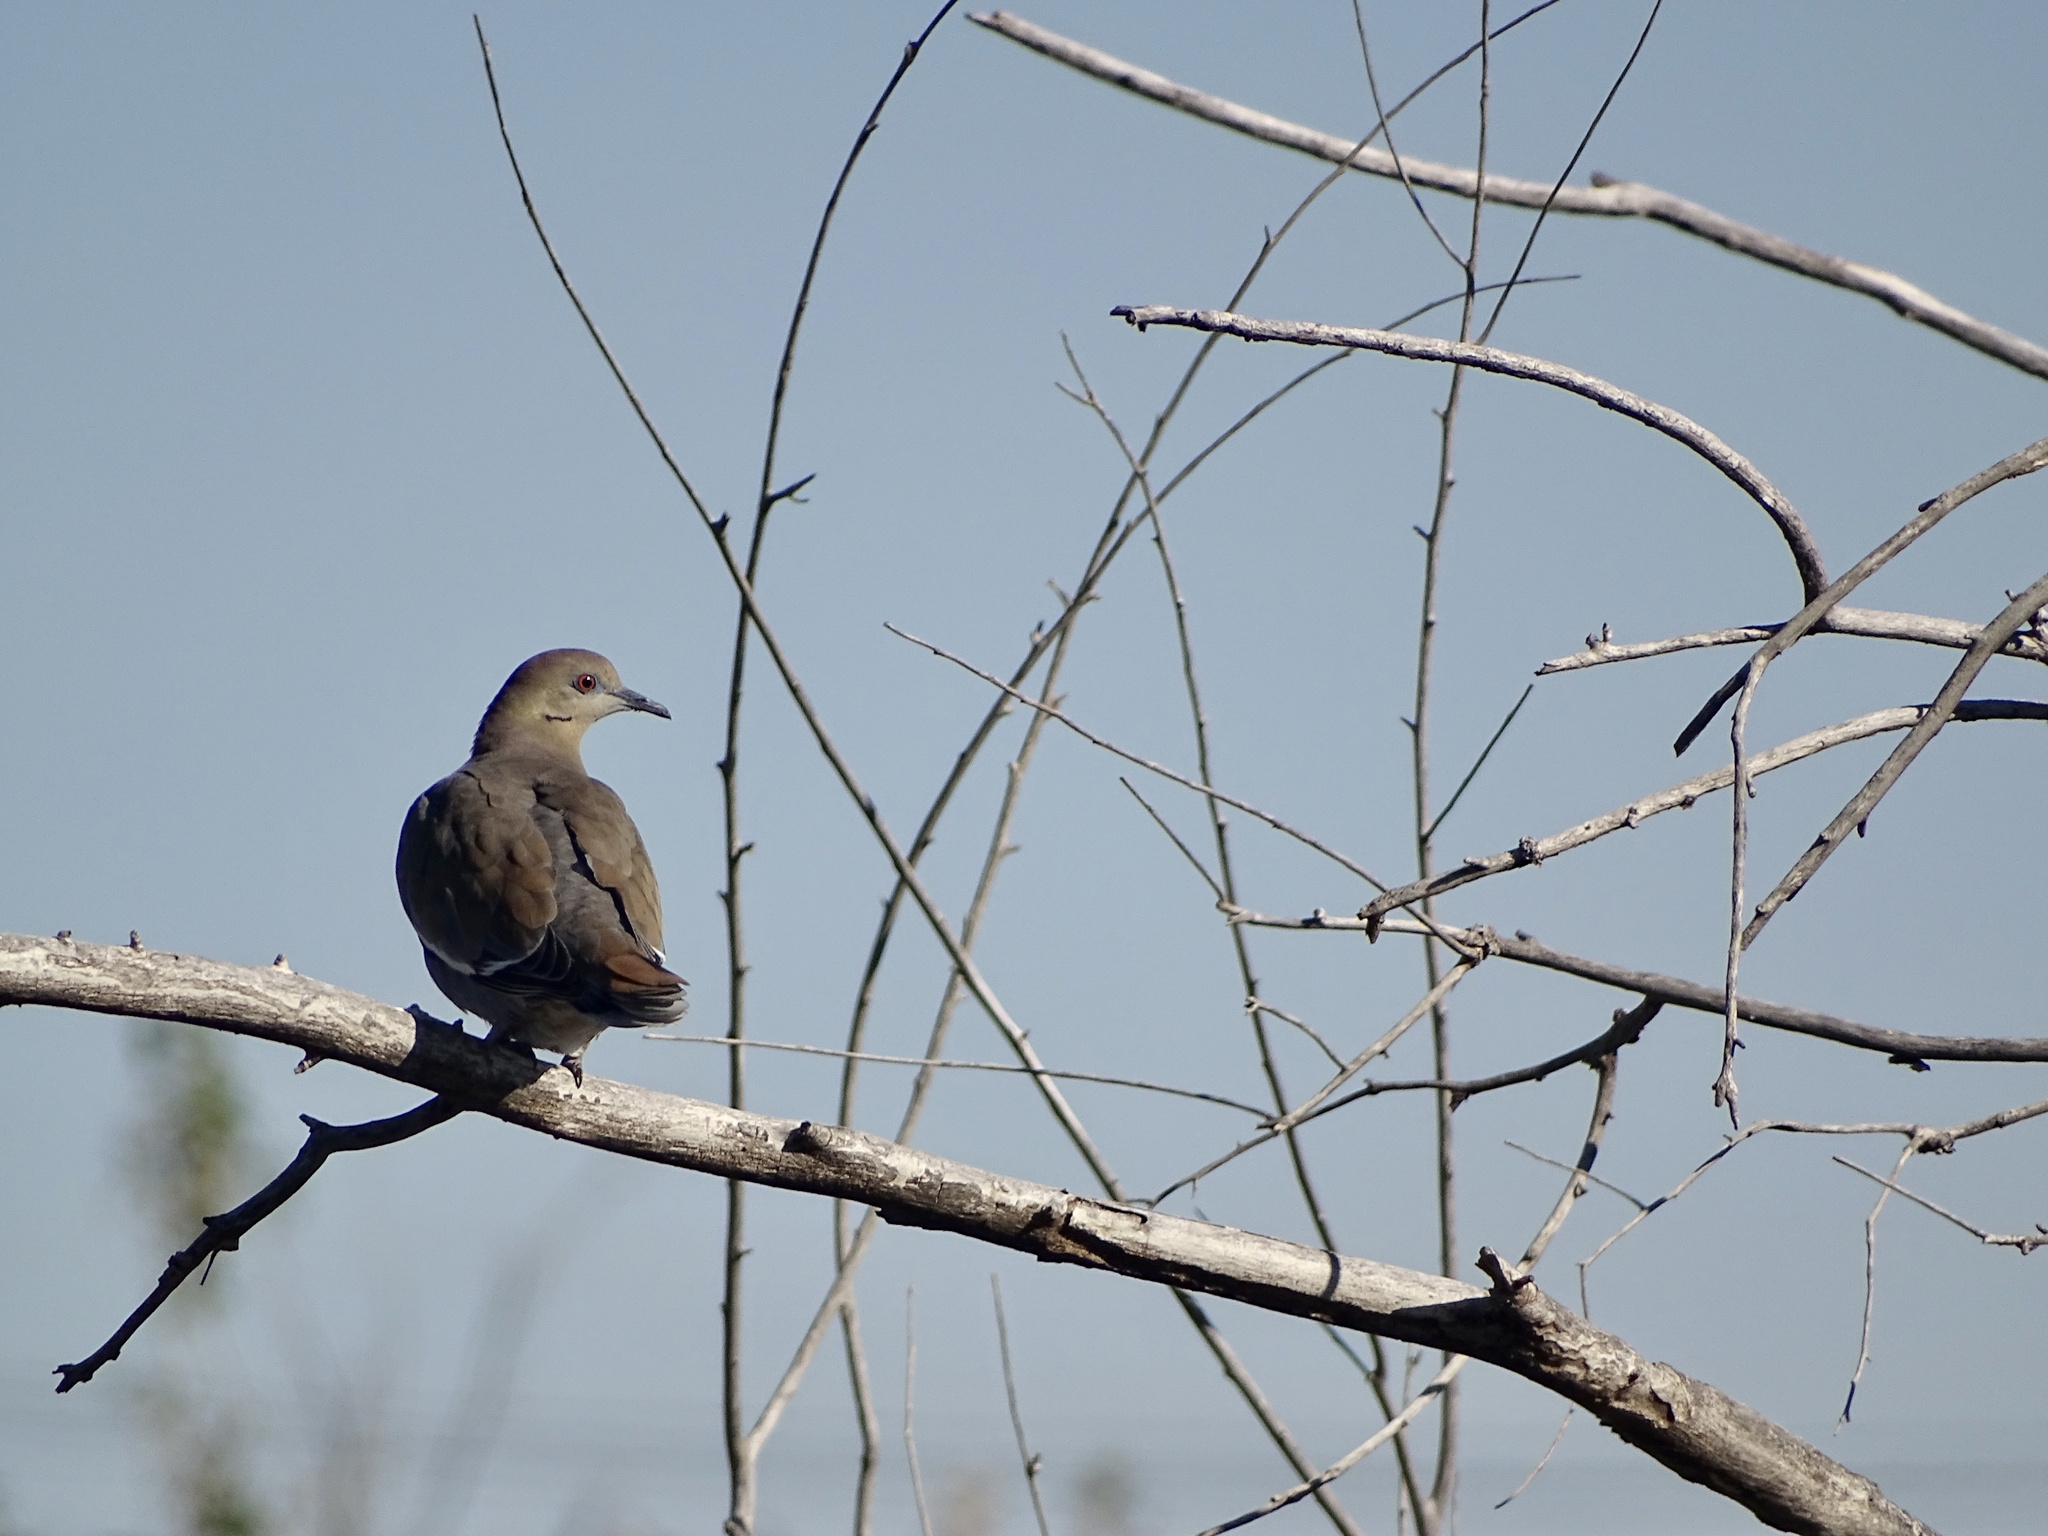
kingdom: Animalia
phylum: Chordata
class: Aves
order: Columbiformes
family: Columbidae
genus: Zenaida
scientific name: Zenaida asiatica
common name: White-winged dove
